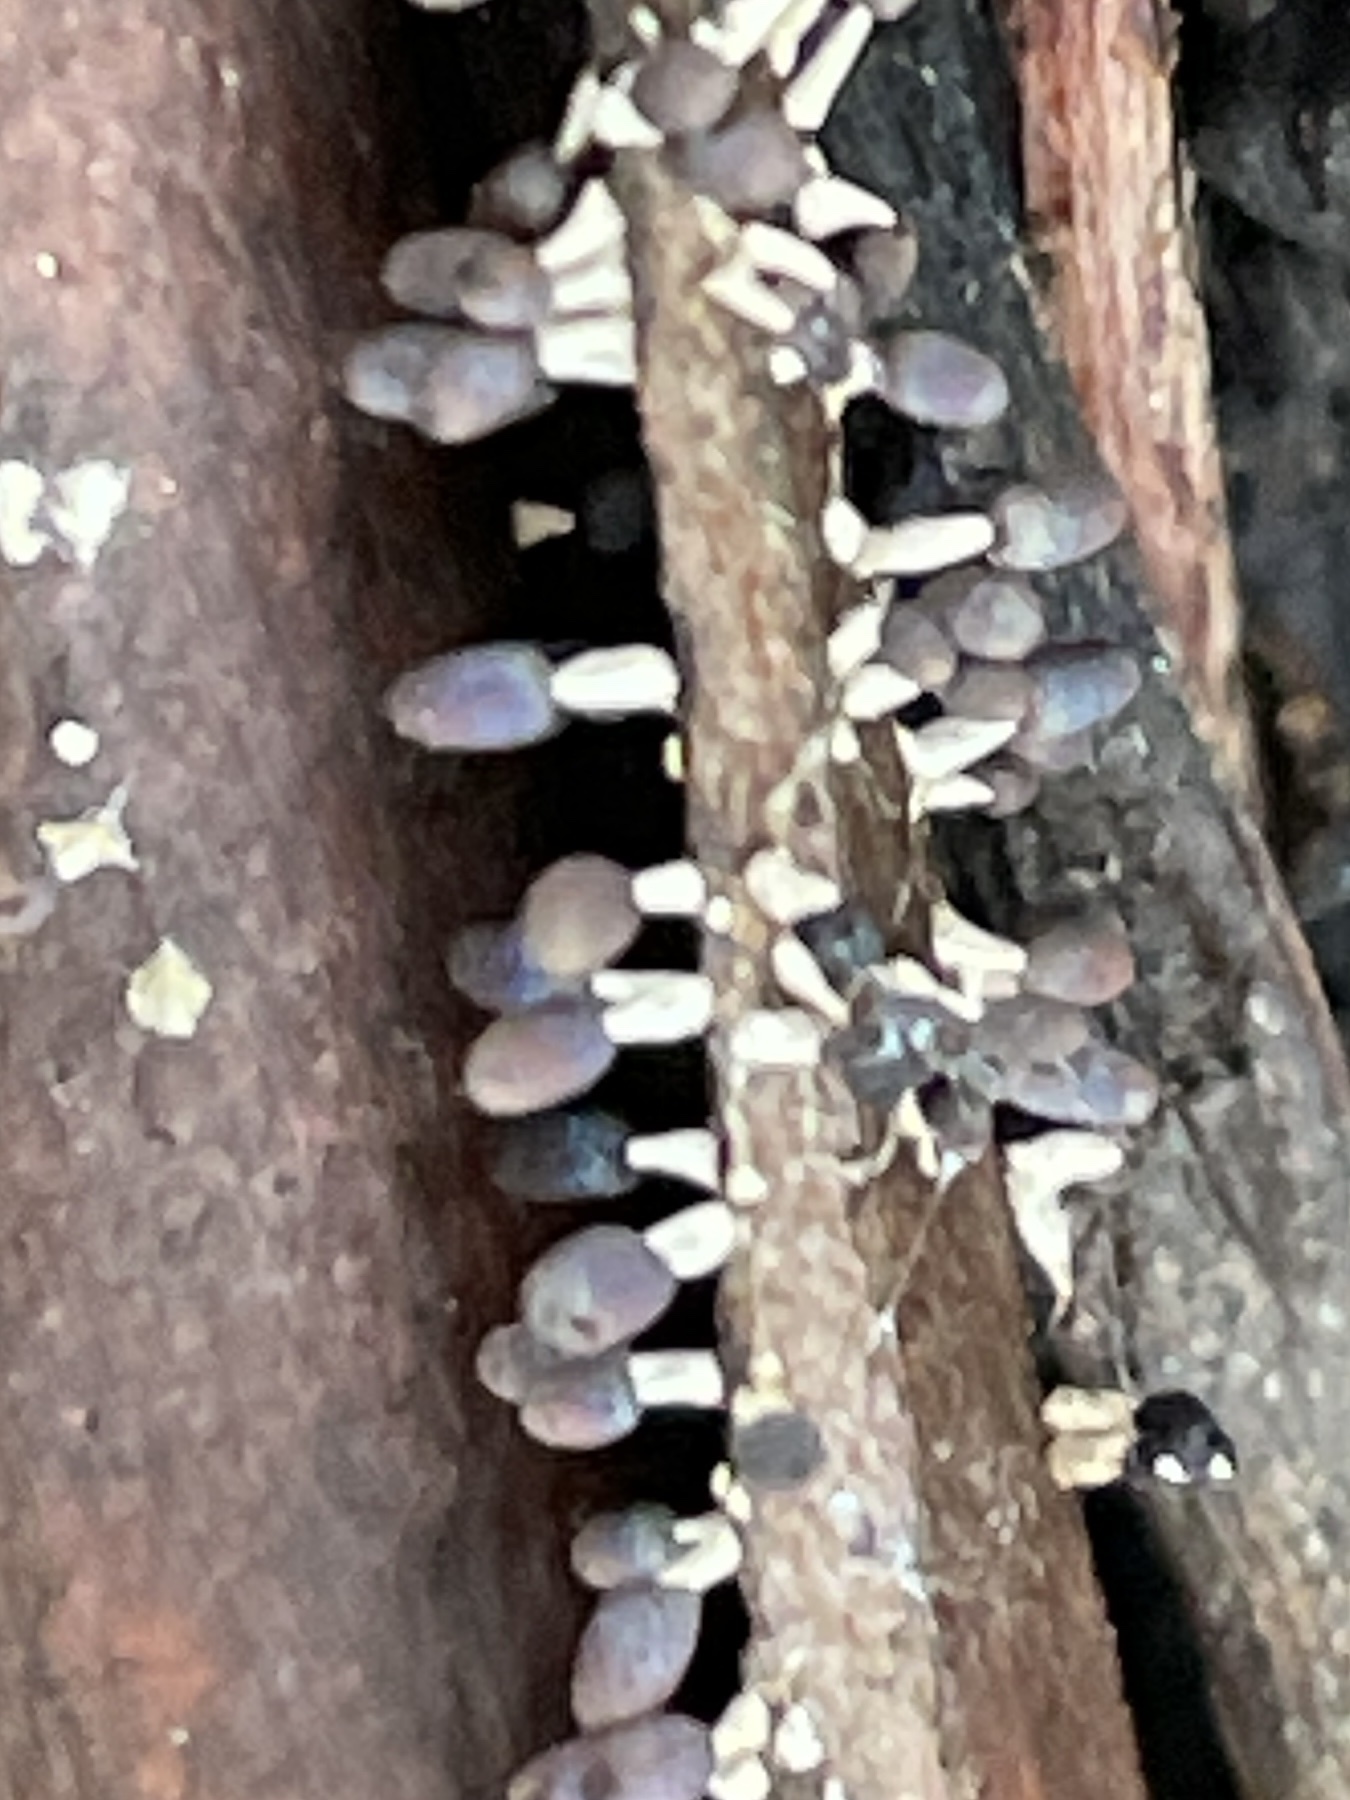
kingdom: Protozoa
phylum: Mycetozoa
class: Myxomycetes
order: Physarales
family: Didymiaceae
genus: Diachea
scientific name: Diachea leucopodia
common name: White-footed slime
